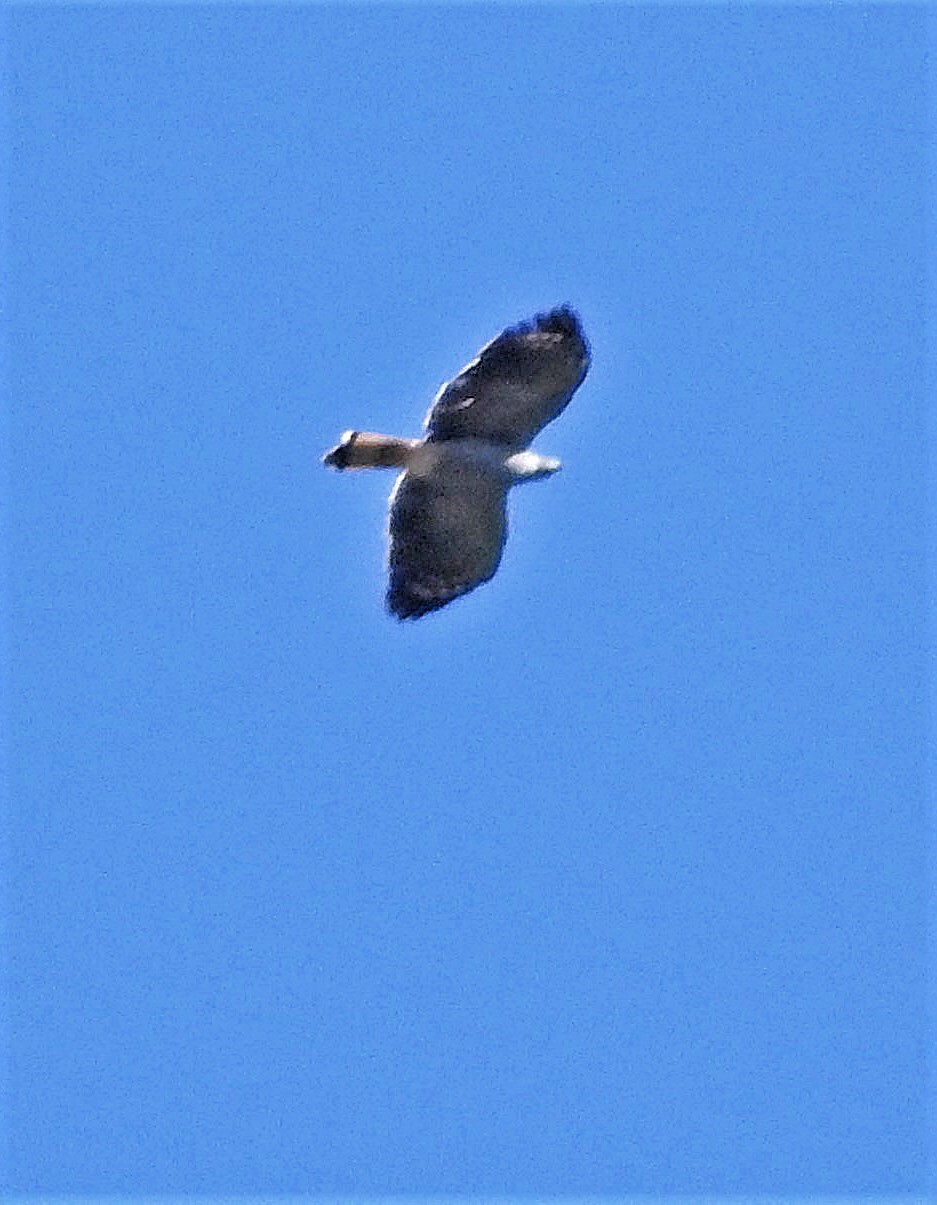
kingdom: Animalia
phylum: Chordata
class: Aves
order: Accipitriformes
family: Accipitridae
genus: Geranospiza
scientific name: Geranospiza caerulescens
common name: Crane hawk
